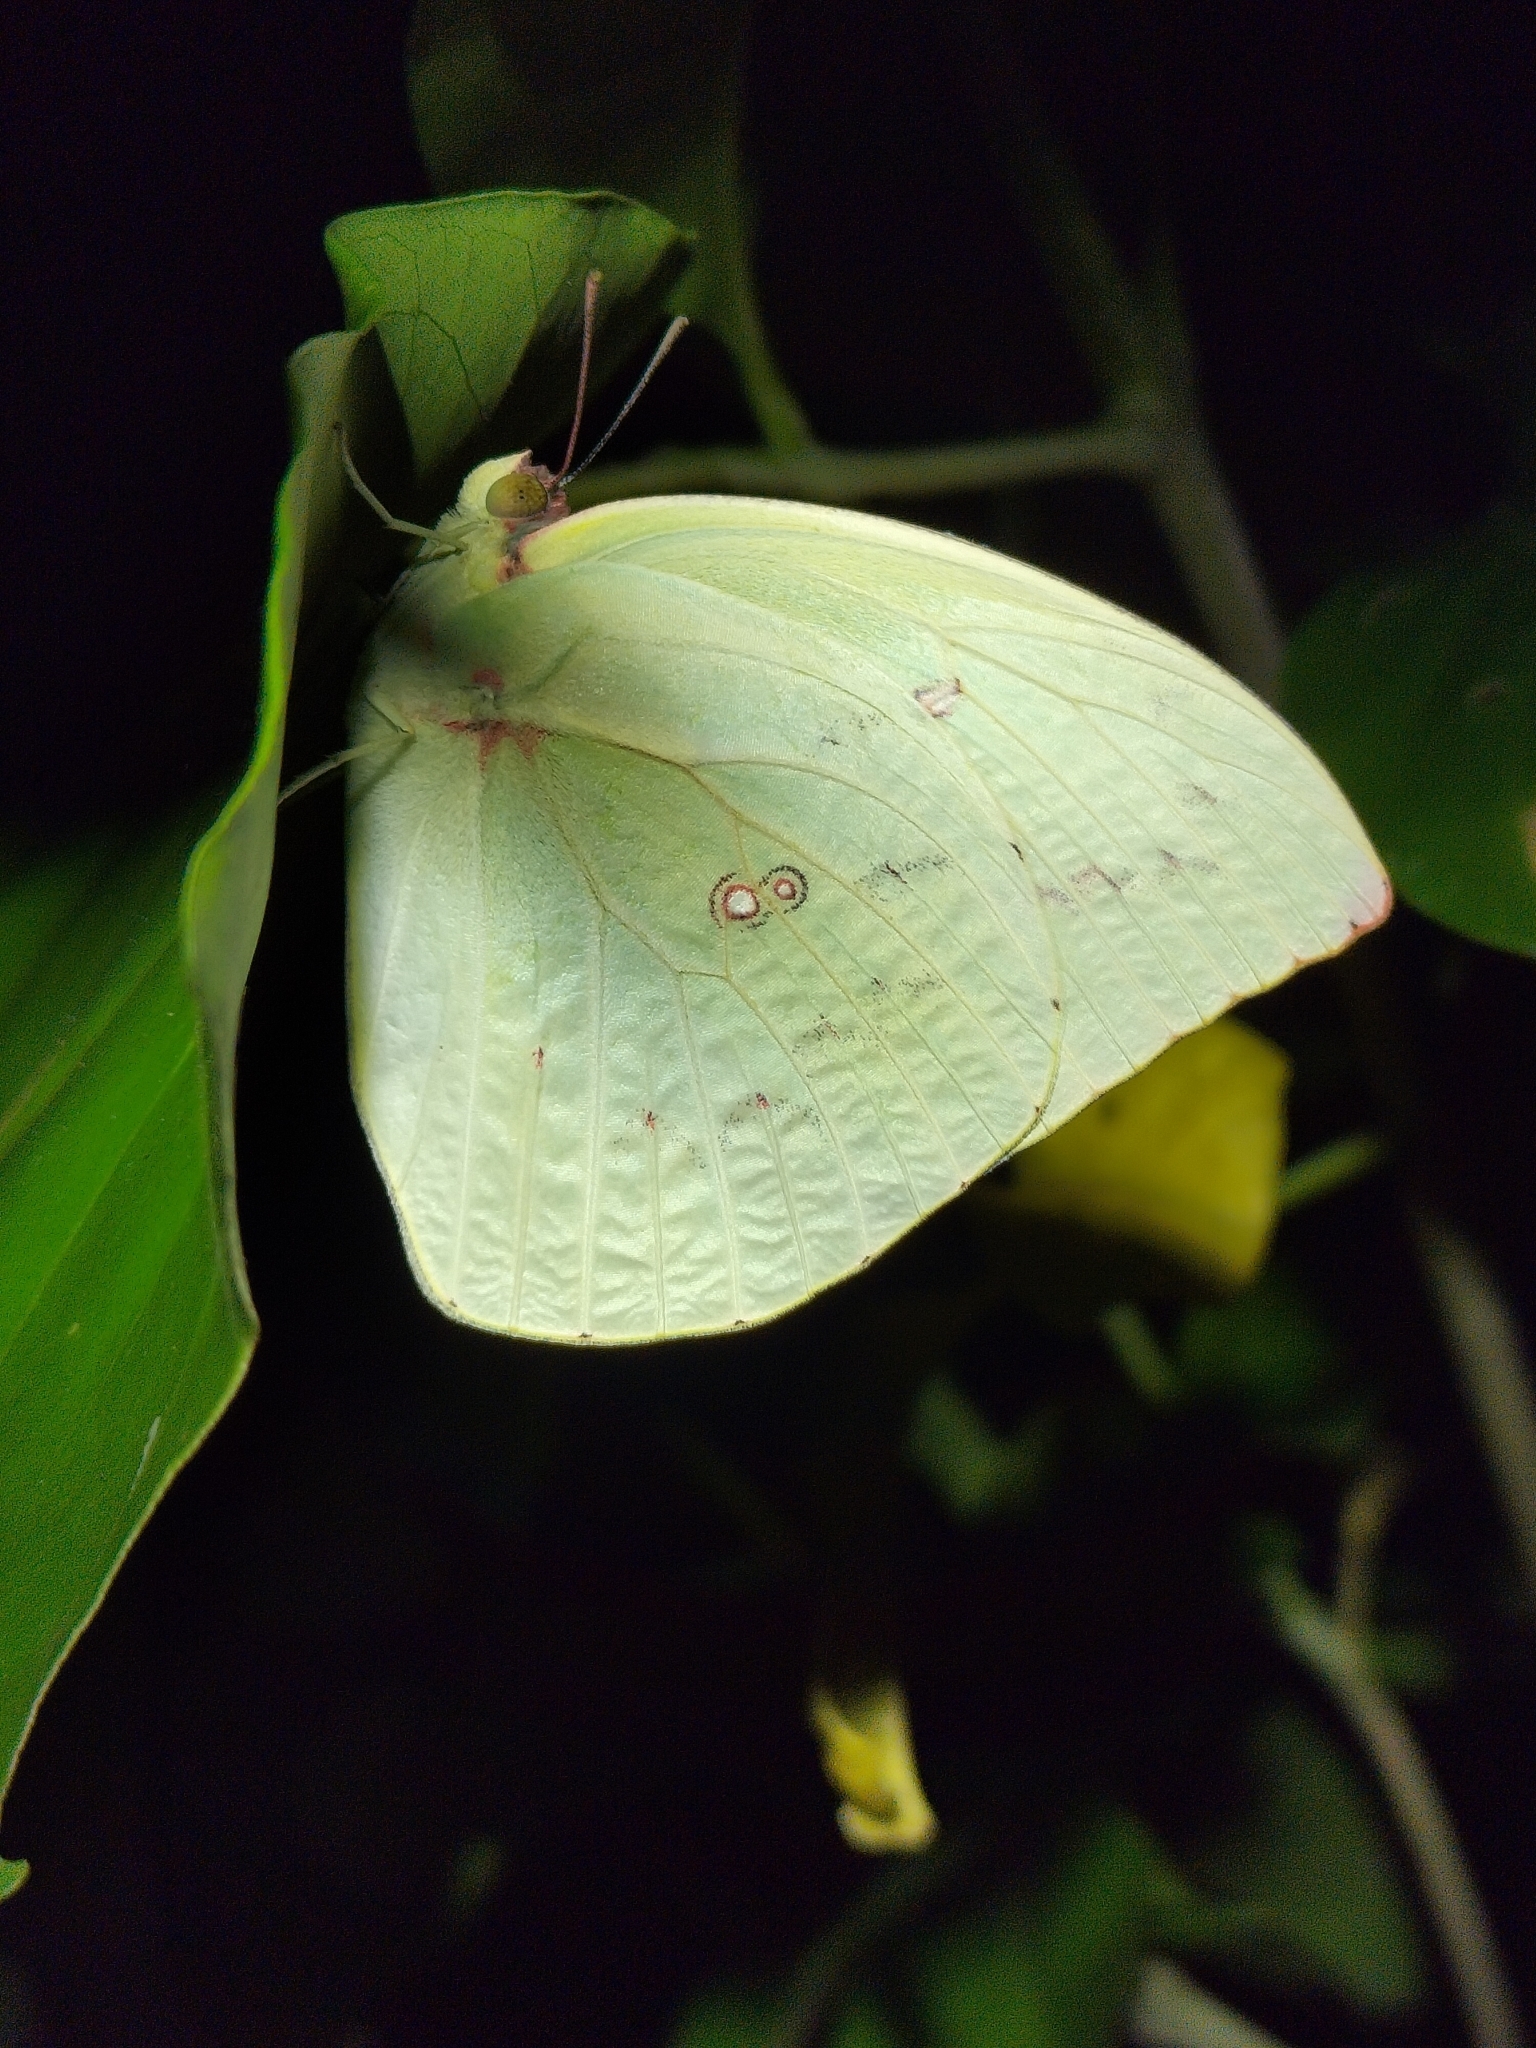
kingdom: Animalia
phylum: Arthropoda
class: Insecta
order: Lepidoptera
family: Pieridae
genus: Catopsilia
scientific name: Catopsilia pomona
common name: Common emigrant
